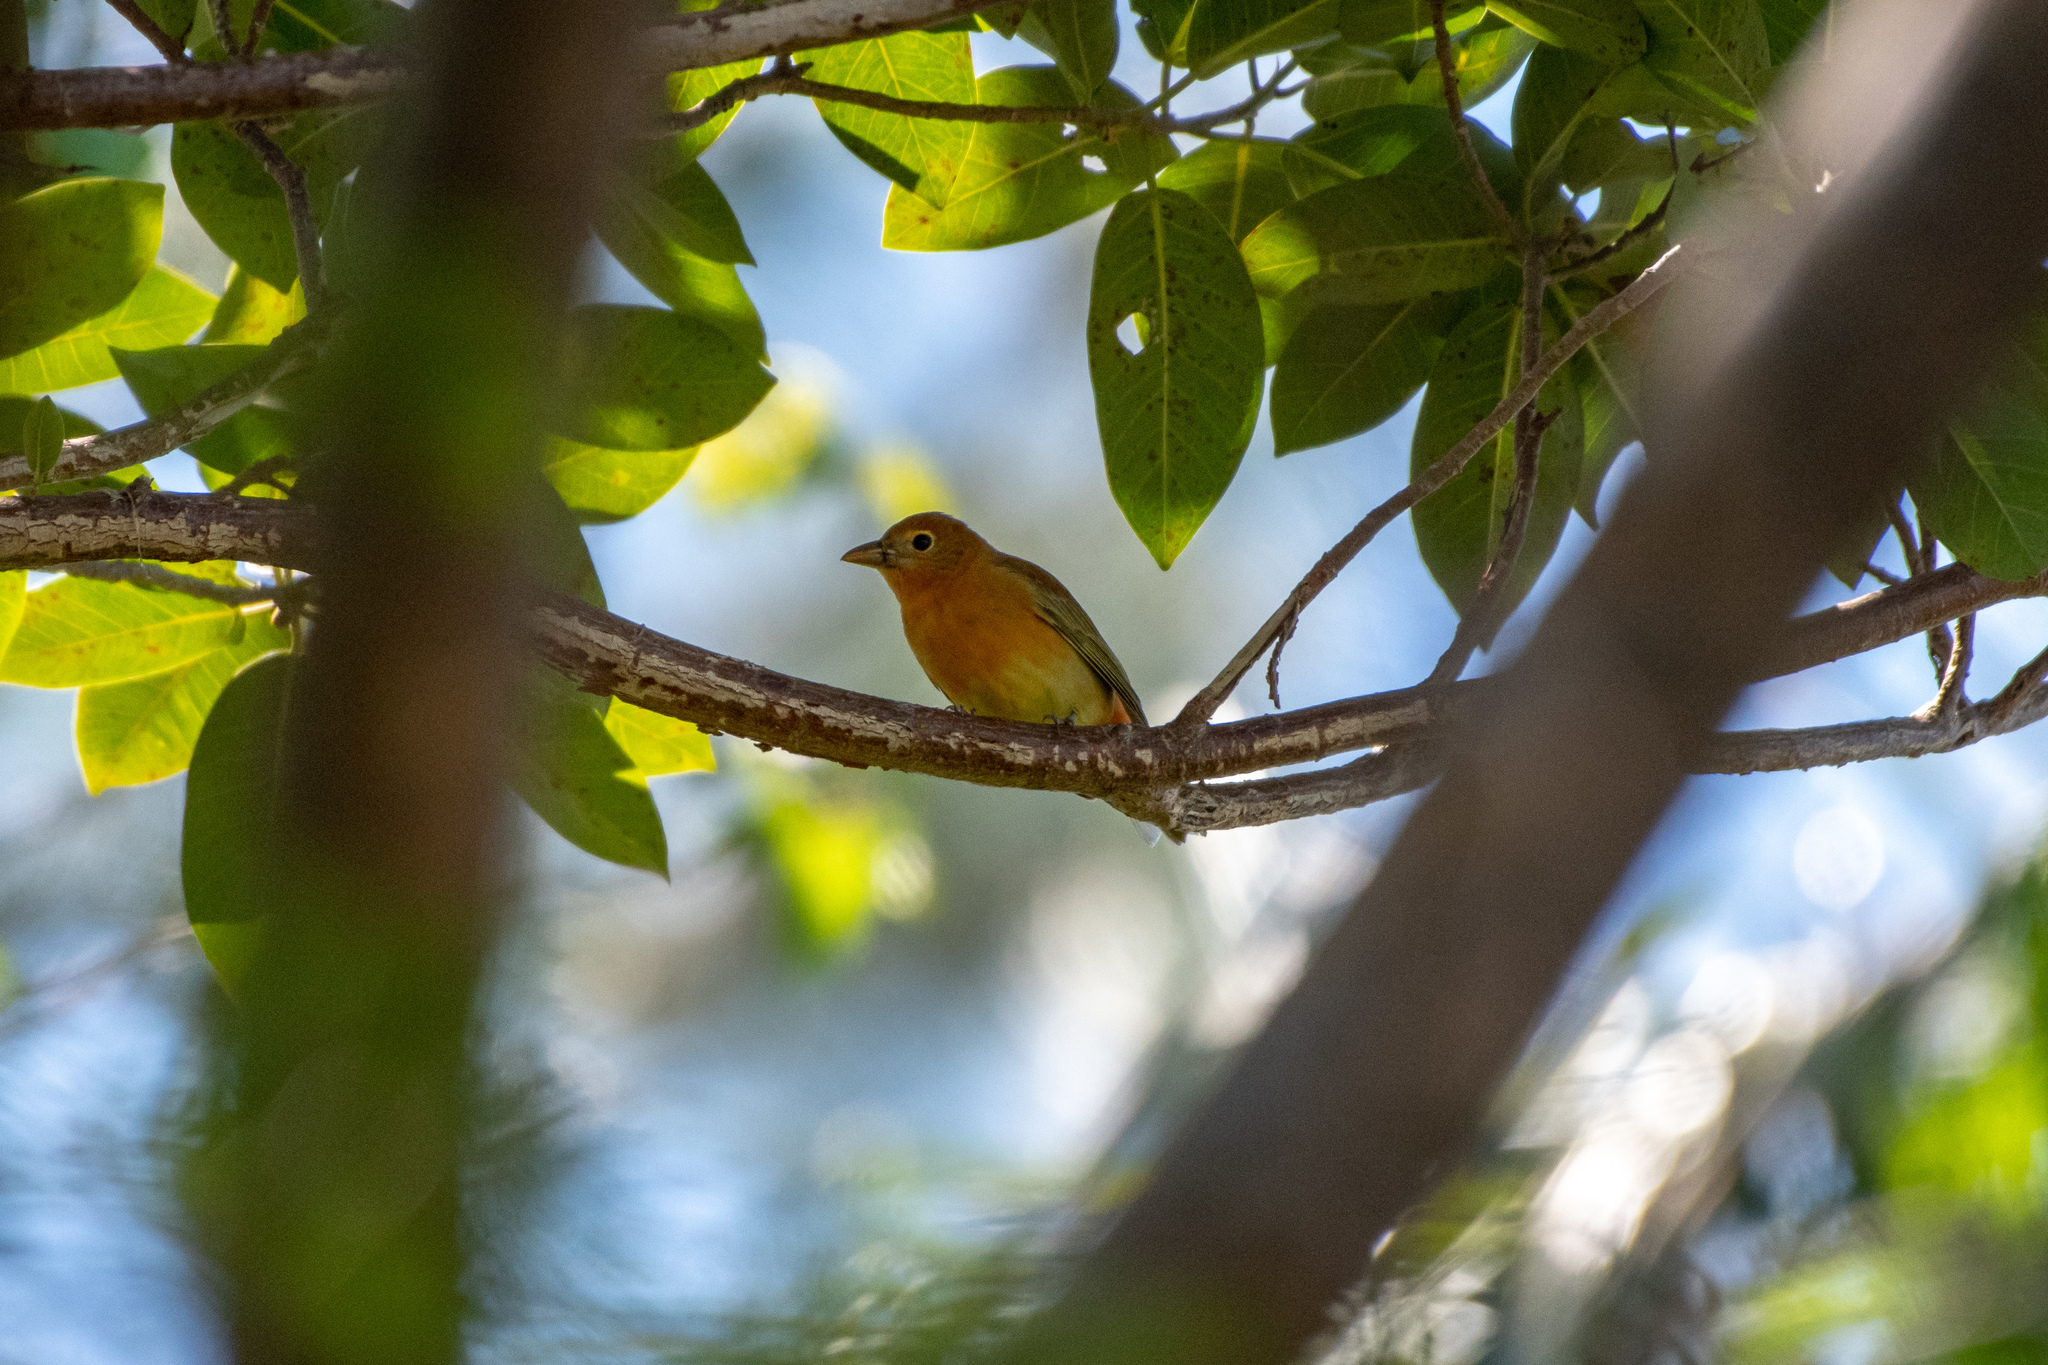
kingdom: Animalia
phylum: Chordata
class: Aves
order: Passeriformes
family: Cardinalidae
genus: Piranga
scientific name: Piranga rubra
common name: Summer tanager
